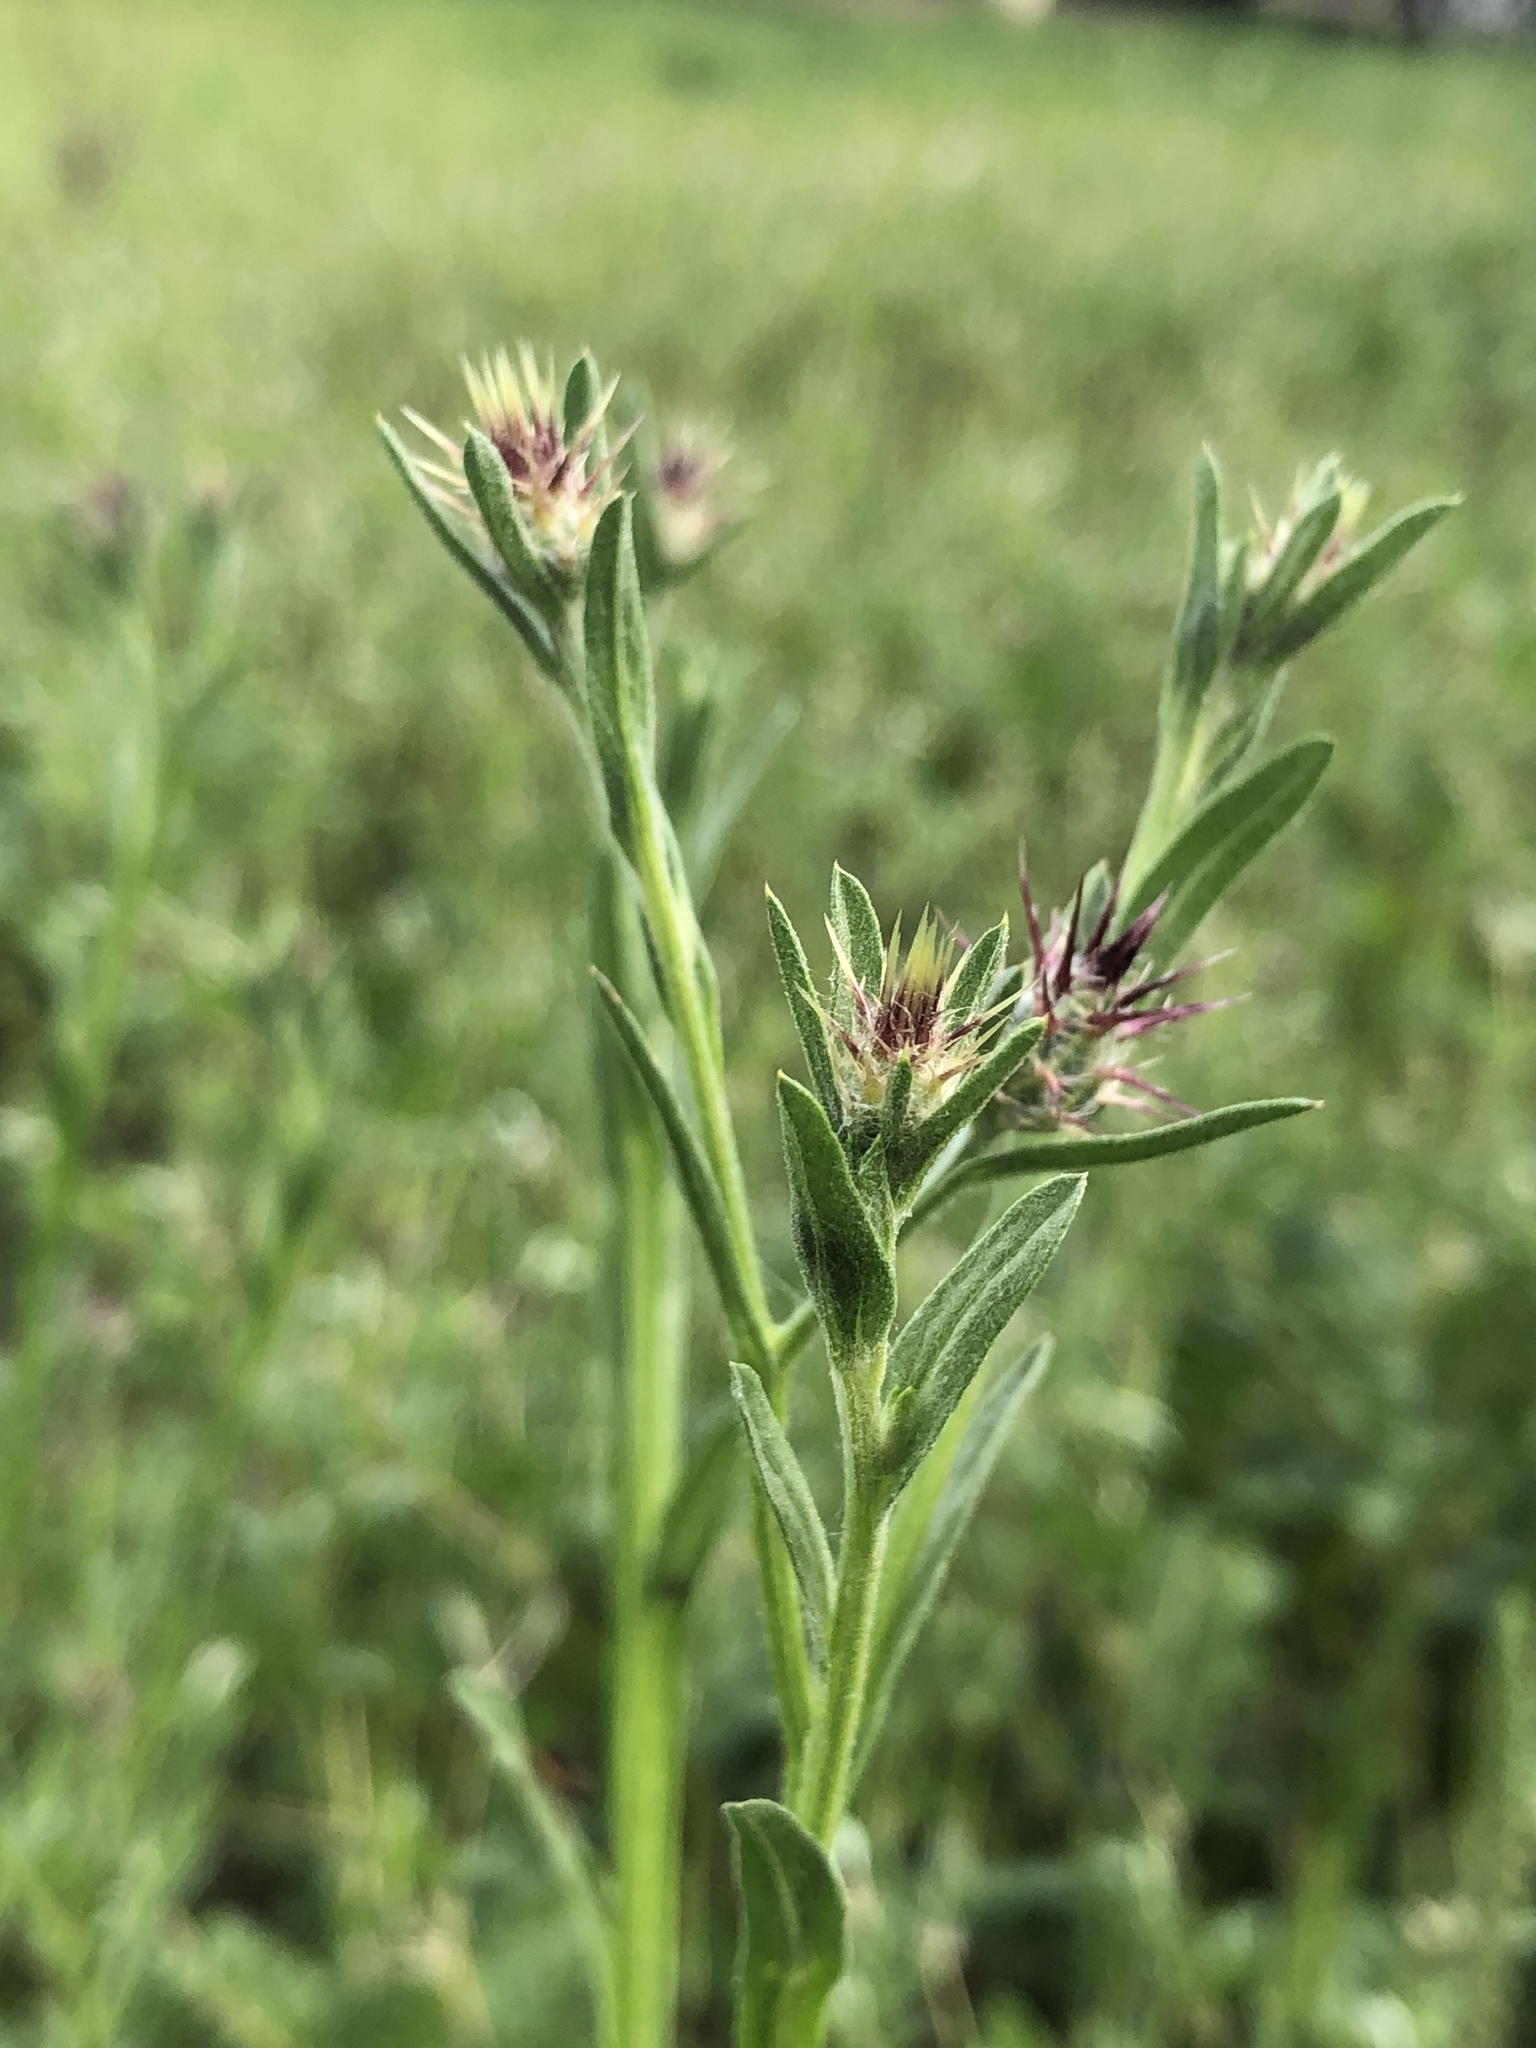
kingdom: Plantae
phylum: Tracheophyta
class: Magnoliopsida
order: Asterales
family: Asteraceae
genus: Centaurea
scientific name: Centaurea melitensis
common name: Maltese star-thistle
